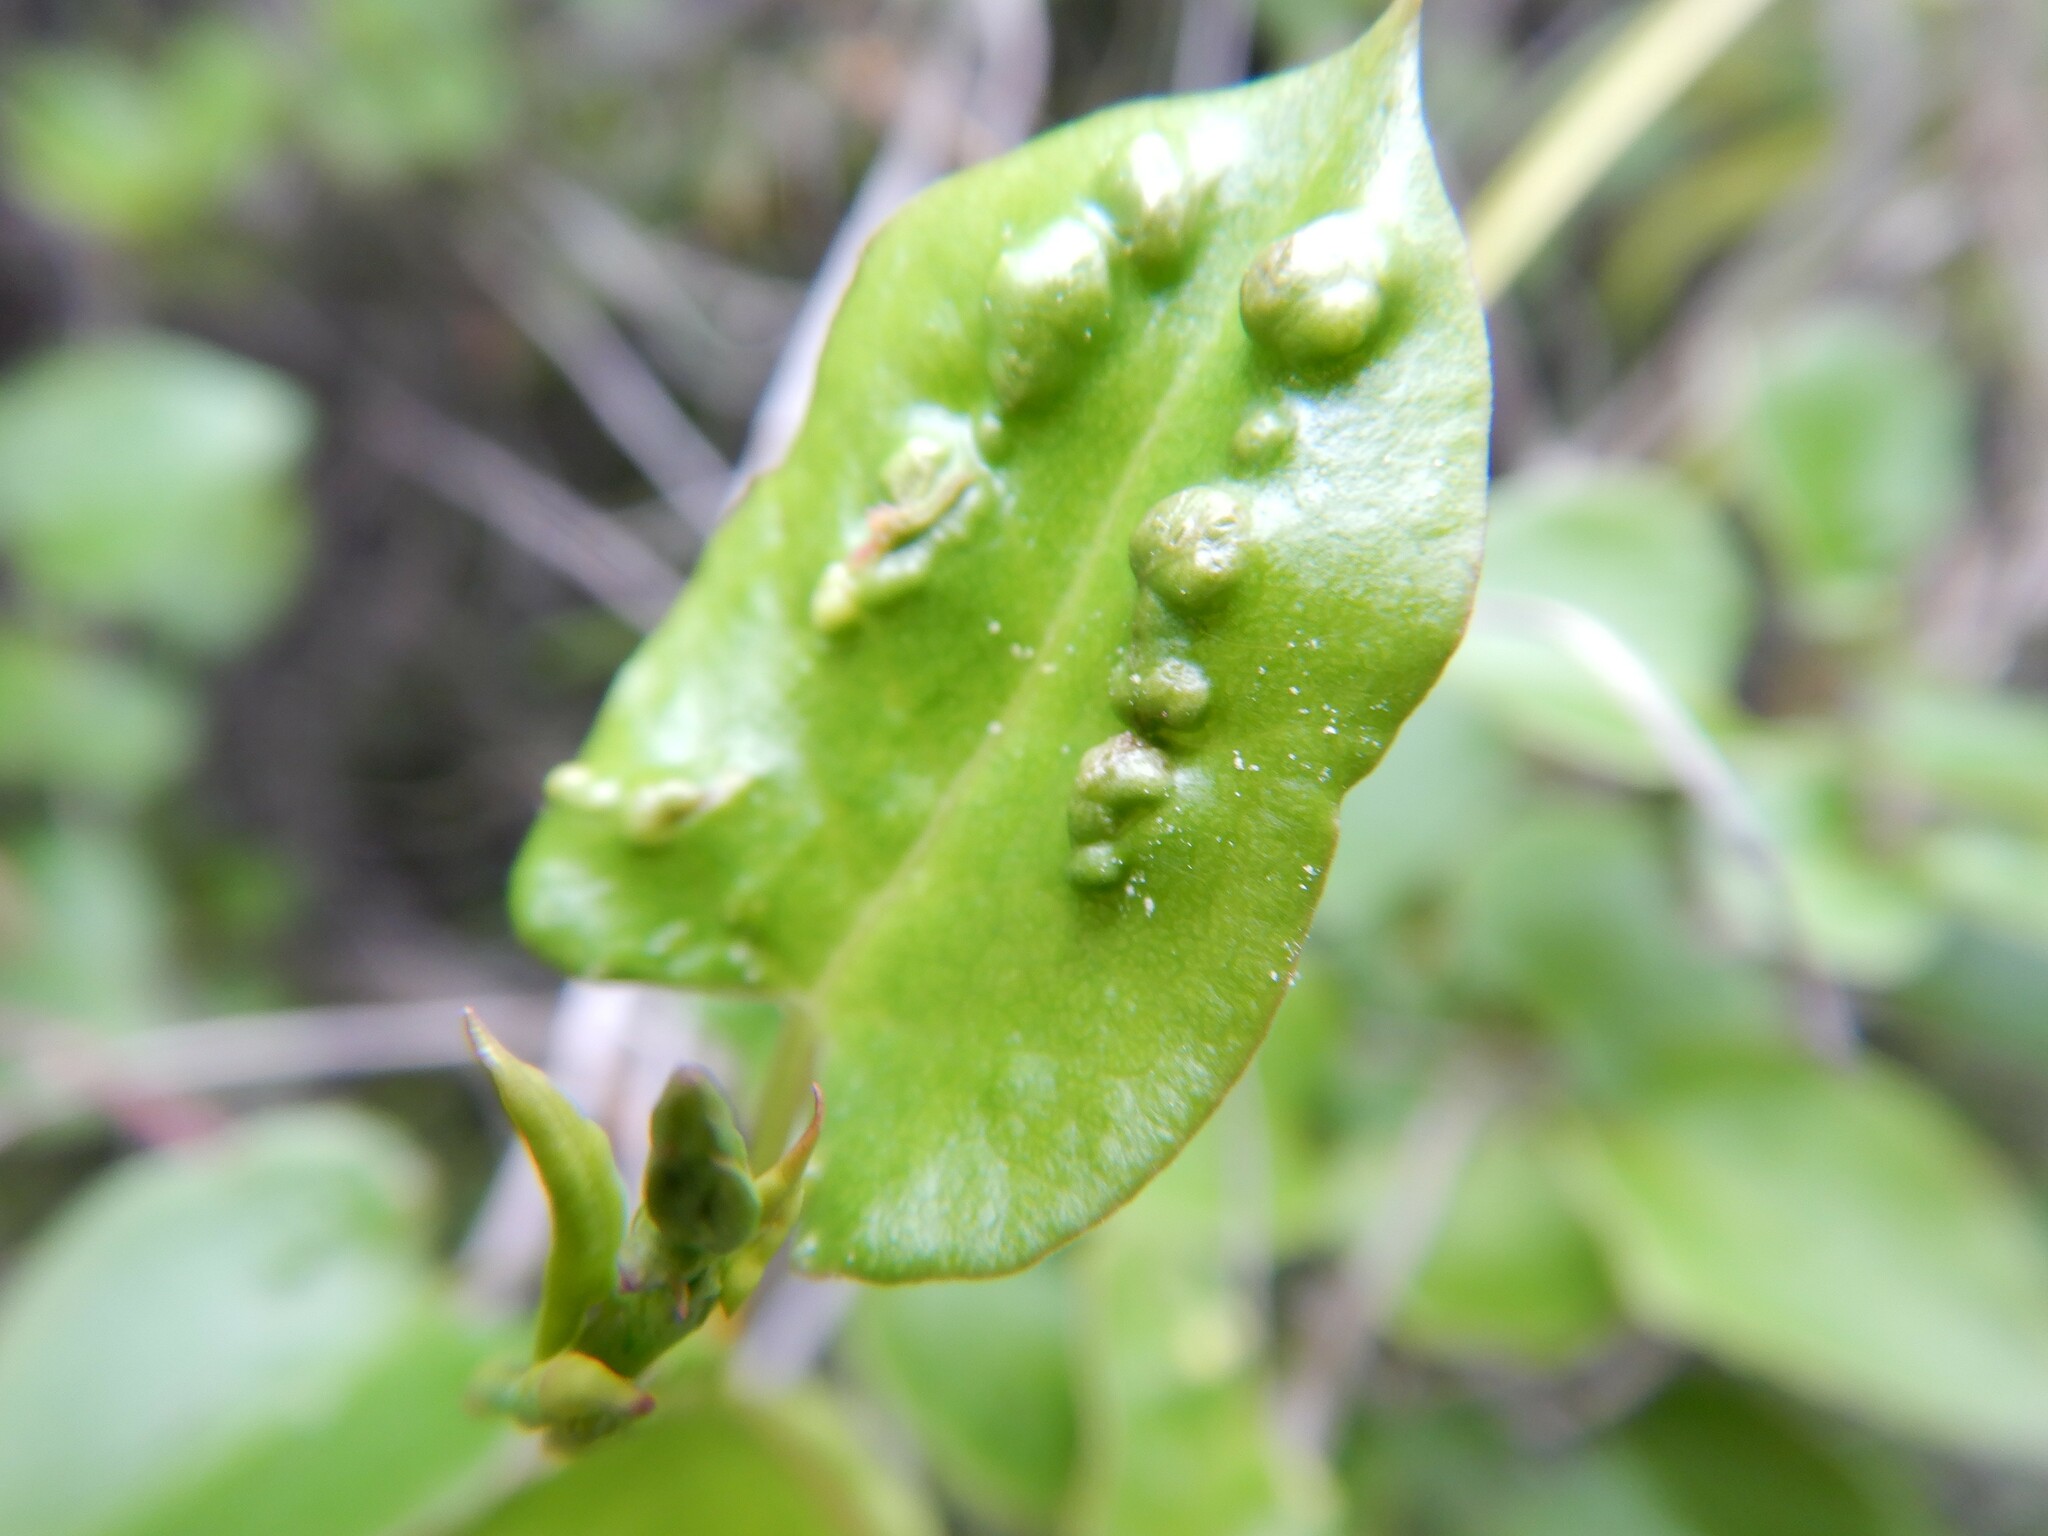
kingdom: Animalia
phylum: Arthropoda
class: Arachnida
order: Trombidiformes
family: Eriophyidae
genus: Aceria
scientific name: Aceria lamii
